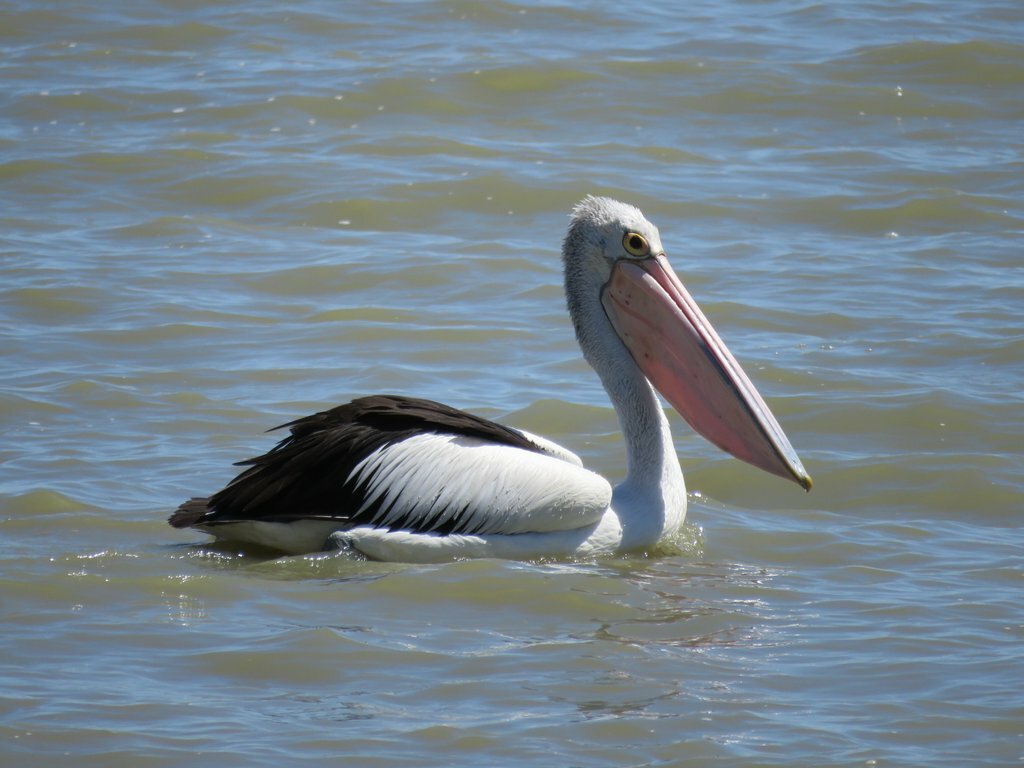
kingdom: Animalia
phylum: Chordata
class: Aves
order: Pelecaniformes
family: Pelecanidae
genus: Pelecanus
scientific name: Pelecanus conspicillatus
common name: Australian pelican
